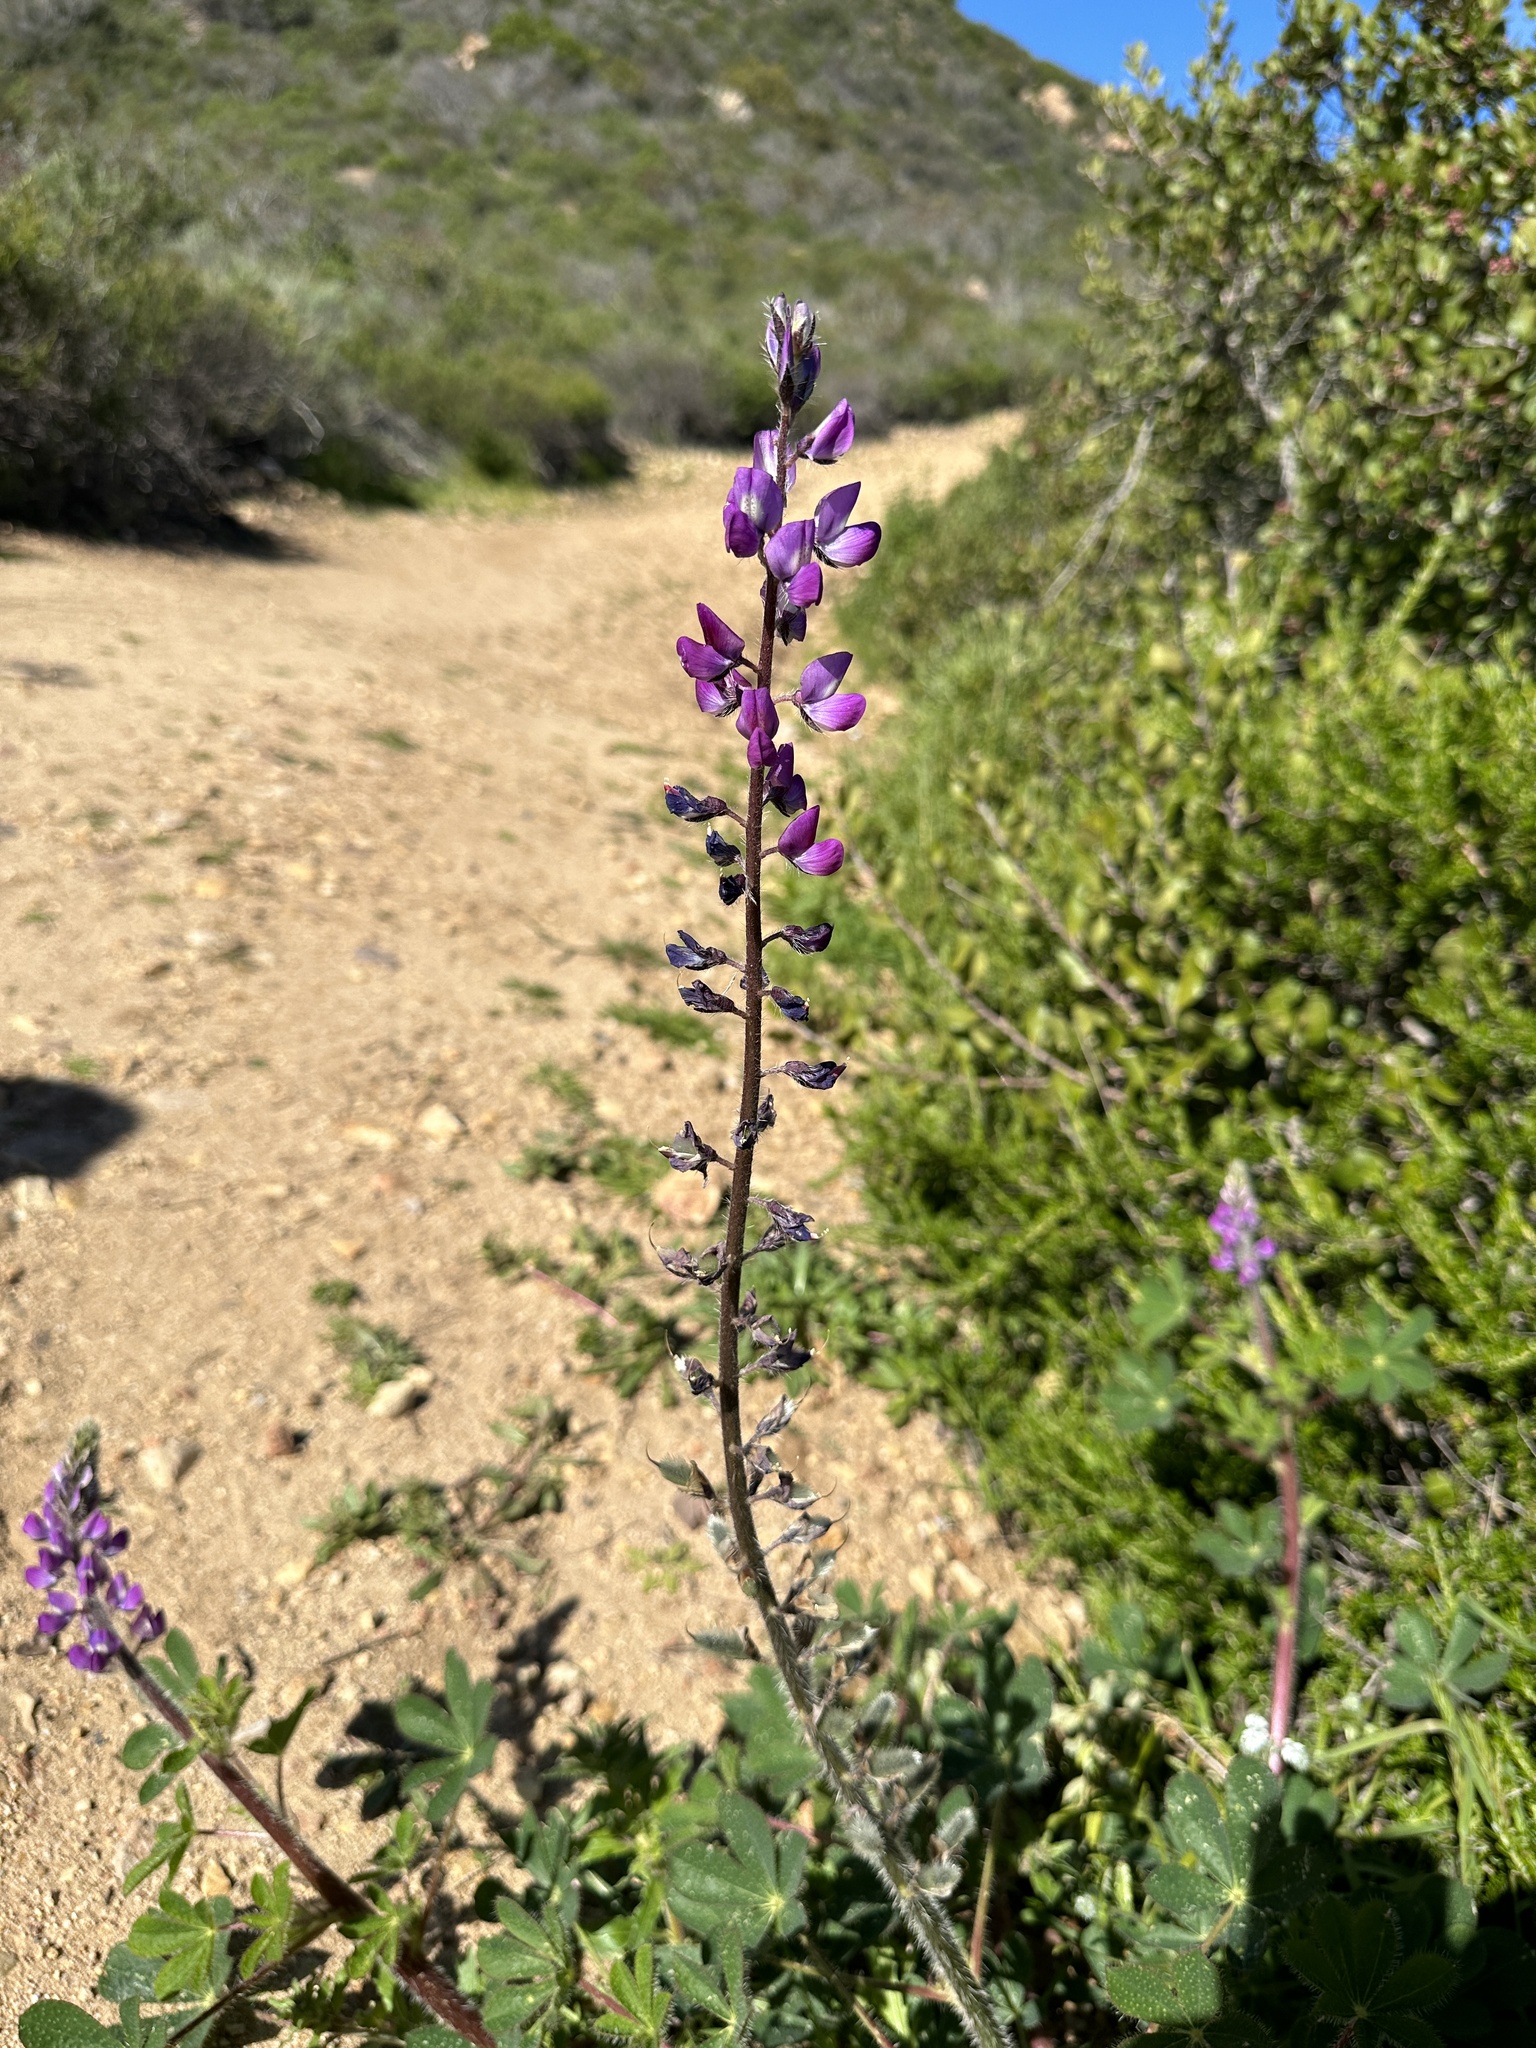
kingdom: Plantae
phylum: Tracheophyta
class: Magnoliopsida
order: Fabales
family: Fabaceae
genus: Lupinus
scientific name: Lupinus hirsutissimus
